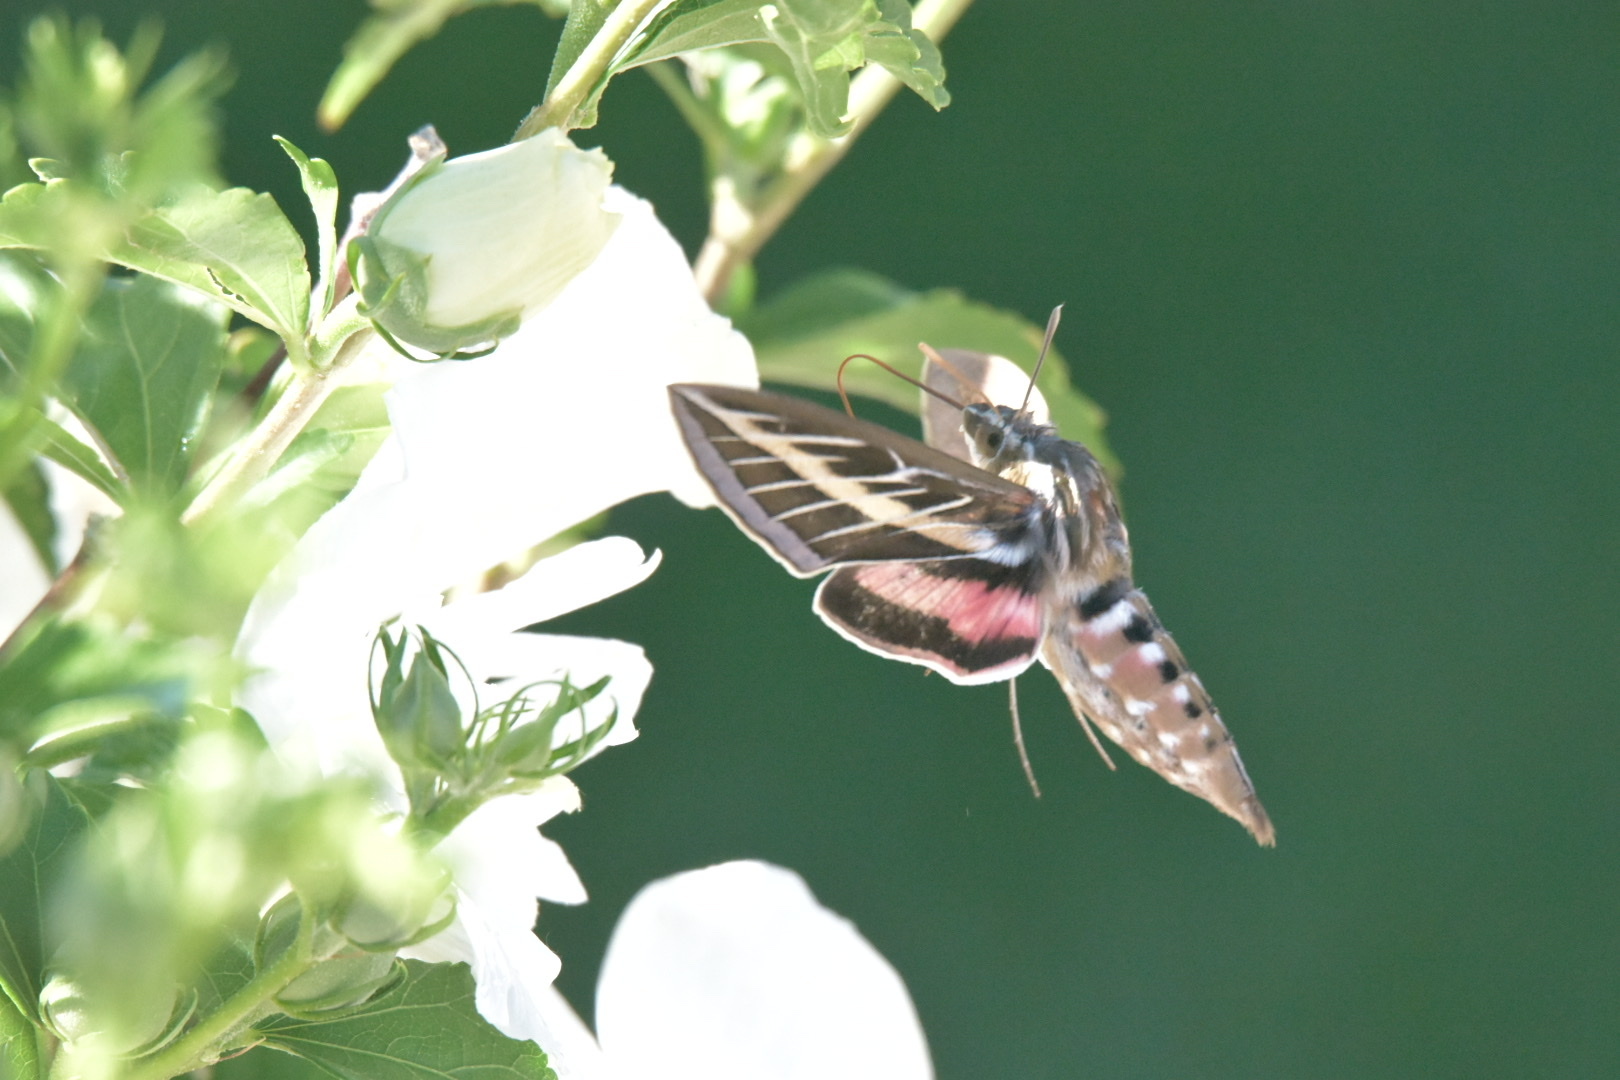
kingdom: Animalia
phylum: Arthropoda
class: Insecta
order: Lepidoptera
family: Sphingidae
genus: Hyles
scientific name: Hyles lineata
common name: White-lined sphinx
